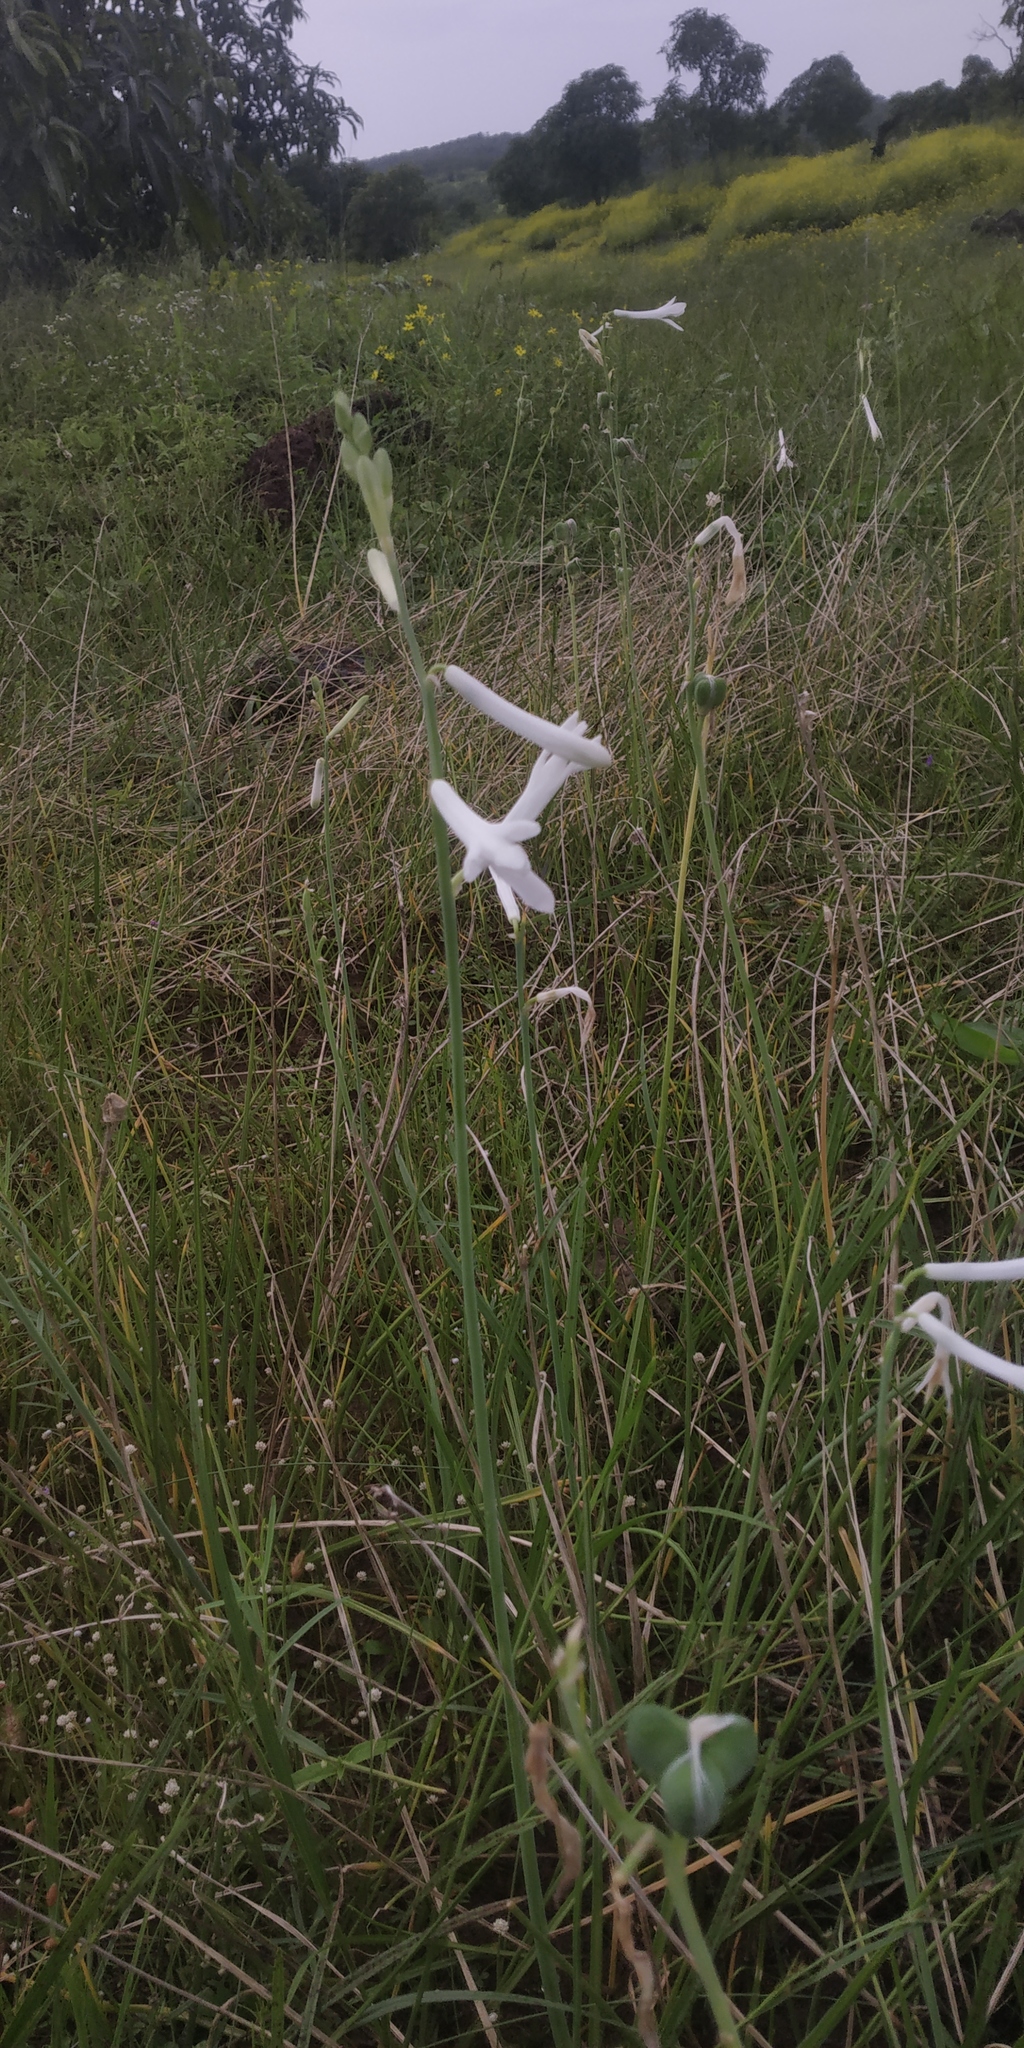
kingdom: Plantae
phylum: Tracheophyta
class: Liliopsida
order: Asparagales
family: Asparagaceae
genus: Dipcadi
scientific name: Dipcadi concanense
